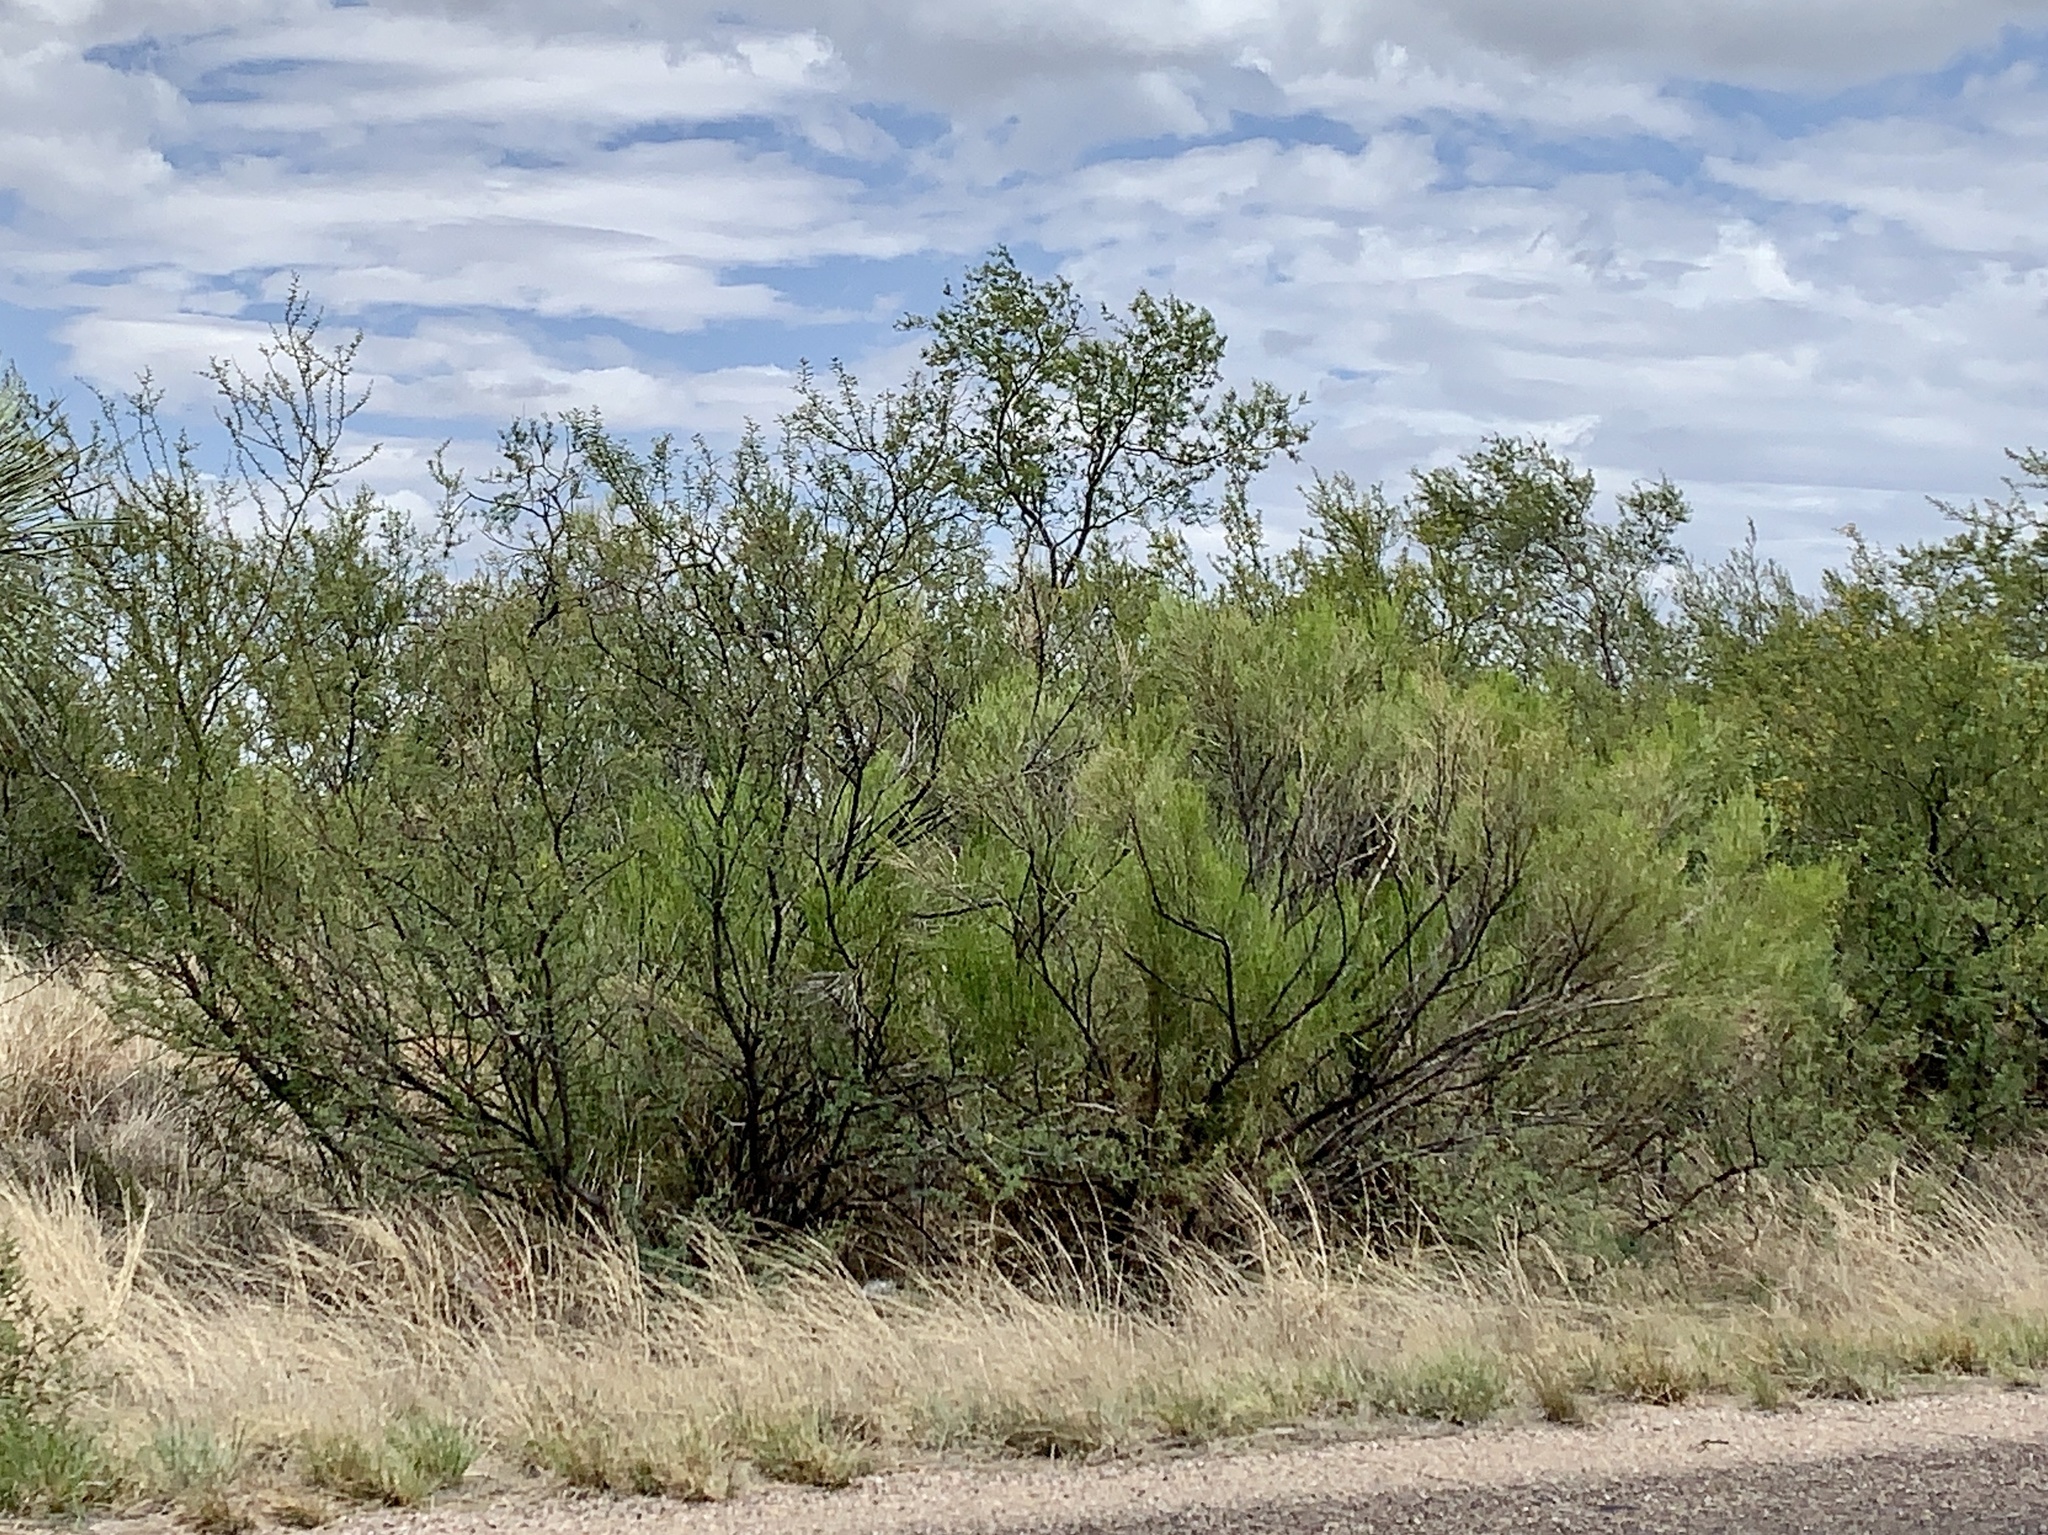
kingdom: Plantae
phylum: Tracheophyta
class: Magnoliopsida
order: Asterales
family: Asteraceae
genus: Baccharis
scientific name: Baccharis sarothroides
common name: Desert-broom
